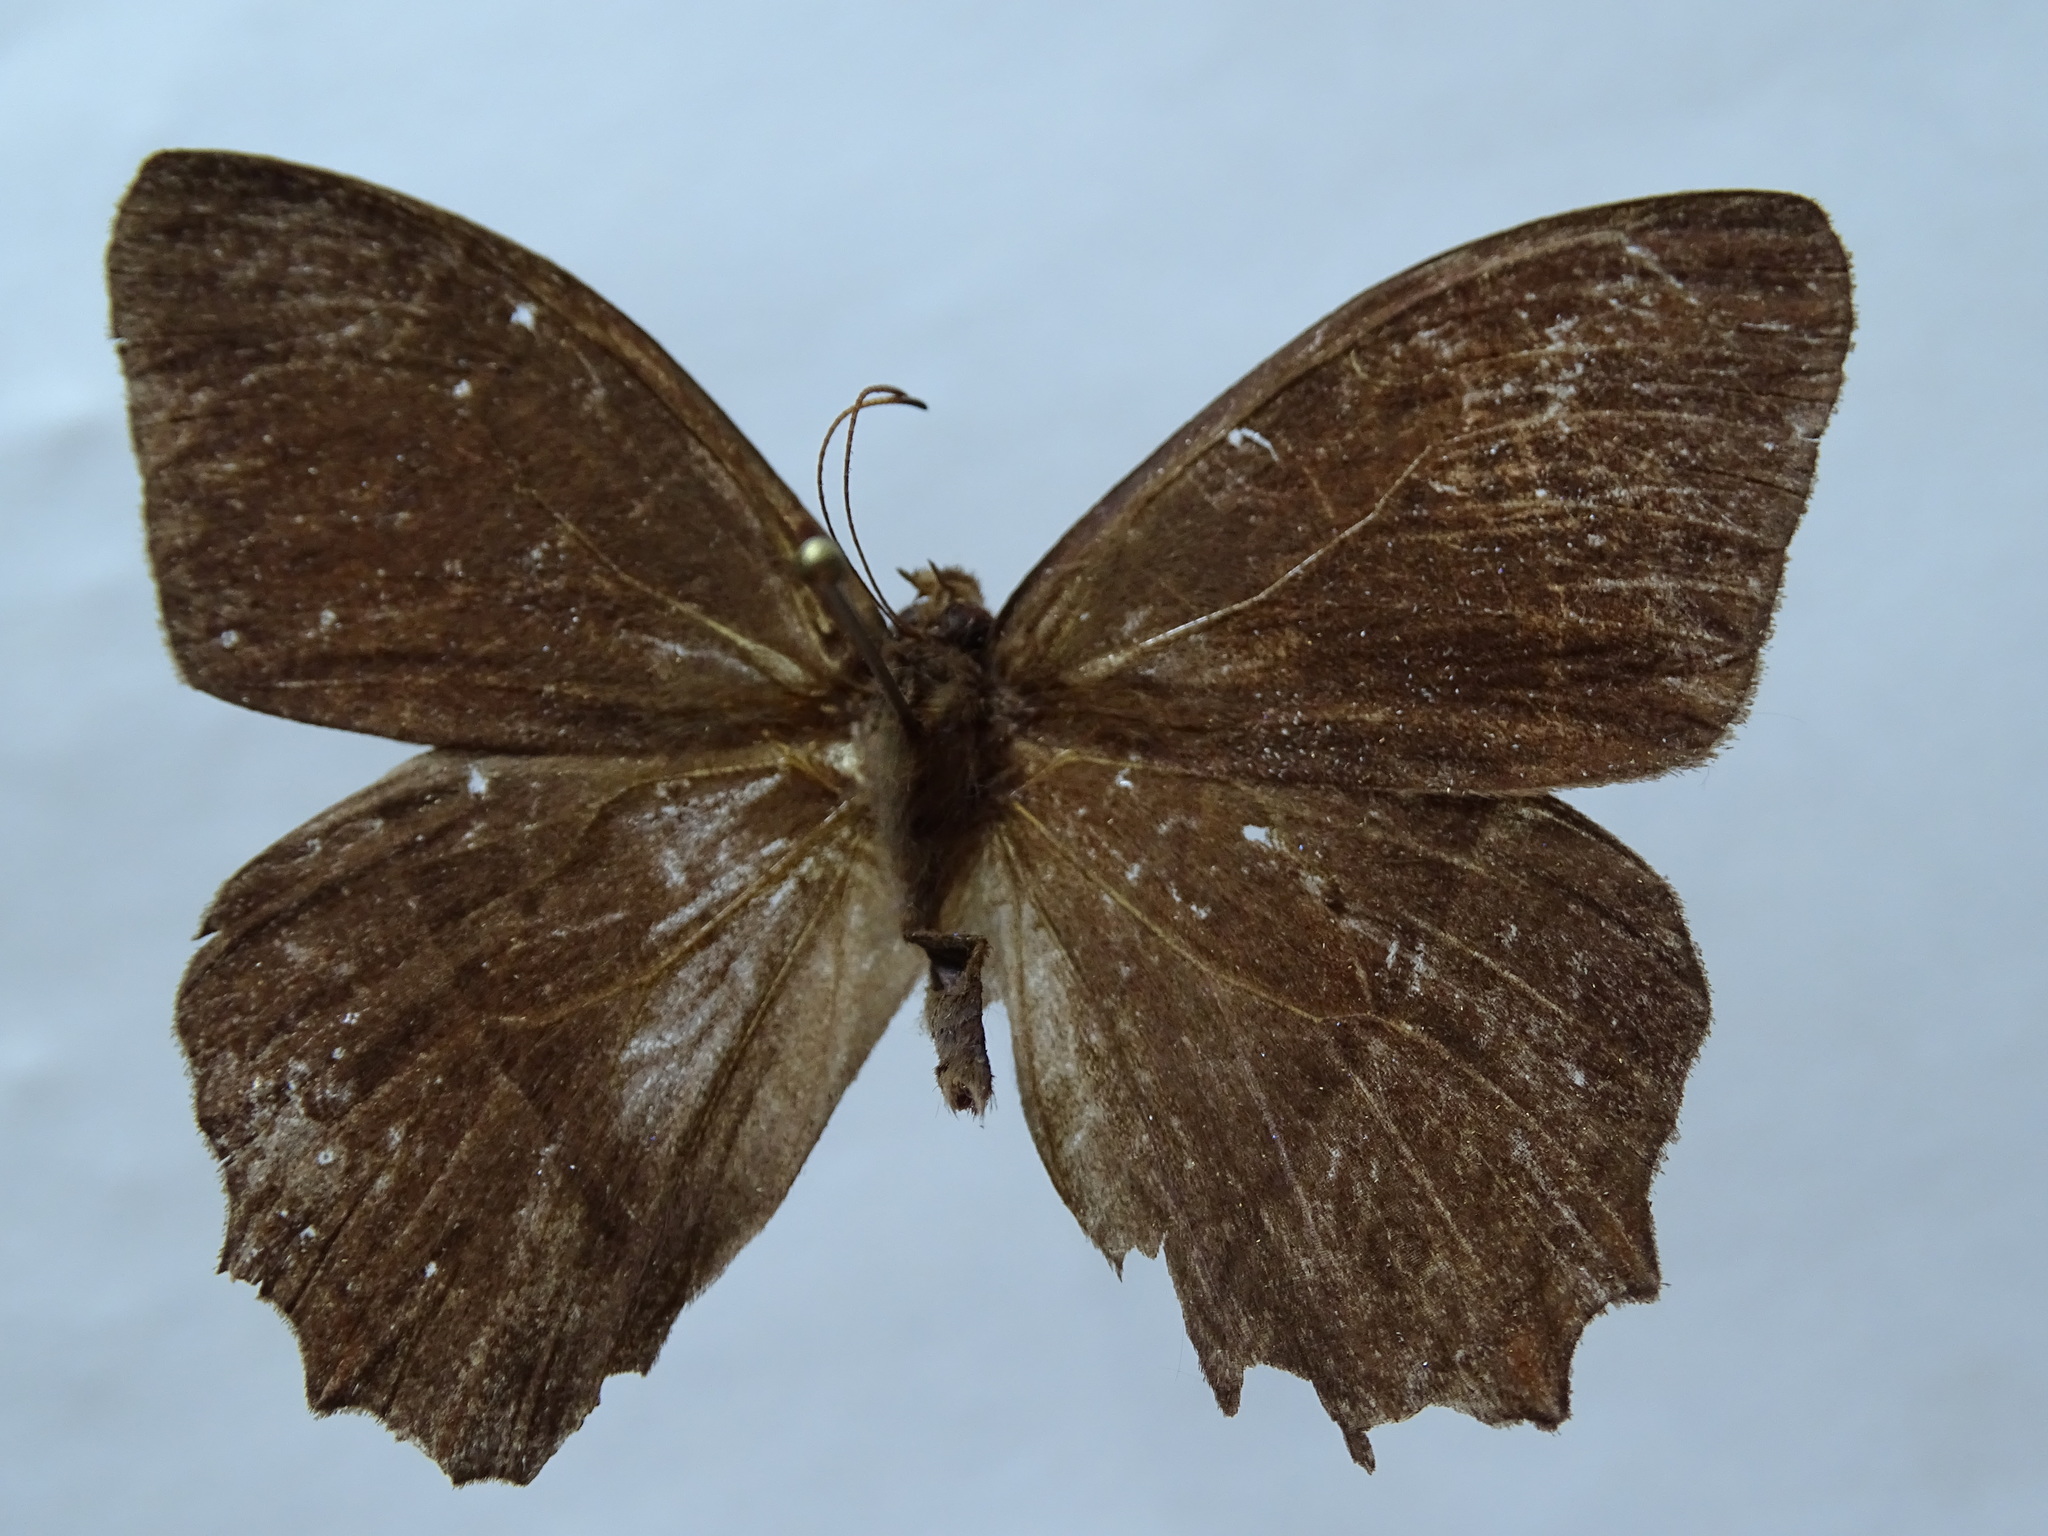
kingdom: Animalia
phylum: Arthropoda
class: Insecta
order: Lepidoptera
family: Nymphalidae
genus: Taygetis
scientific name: Taygetis salvini
